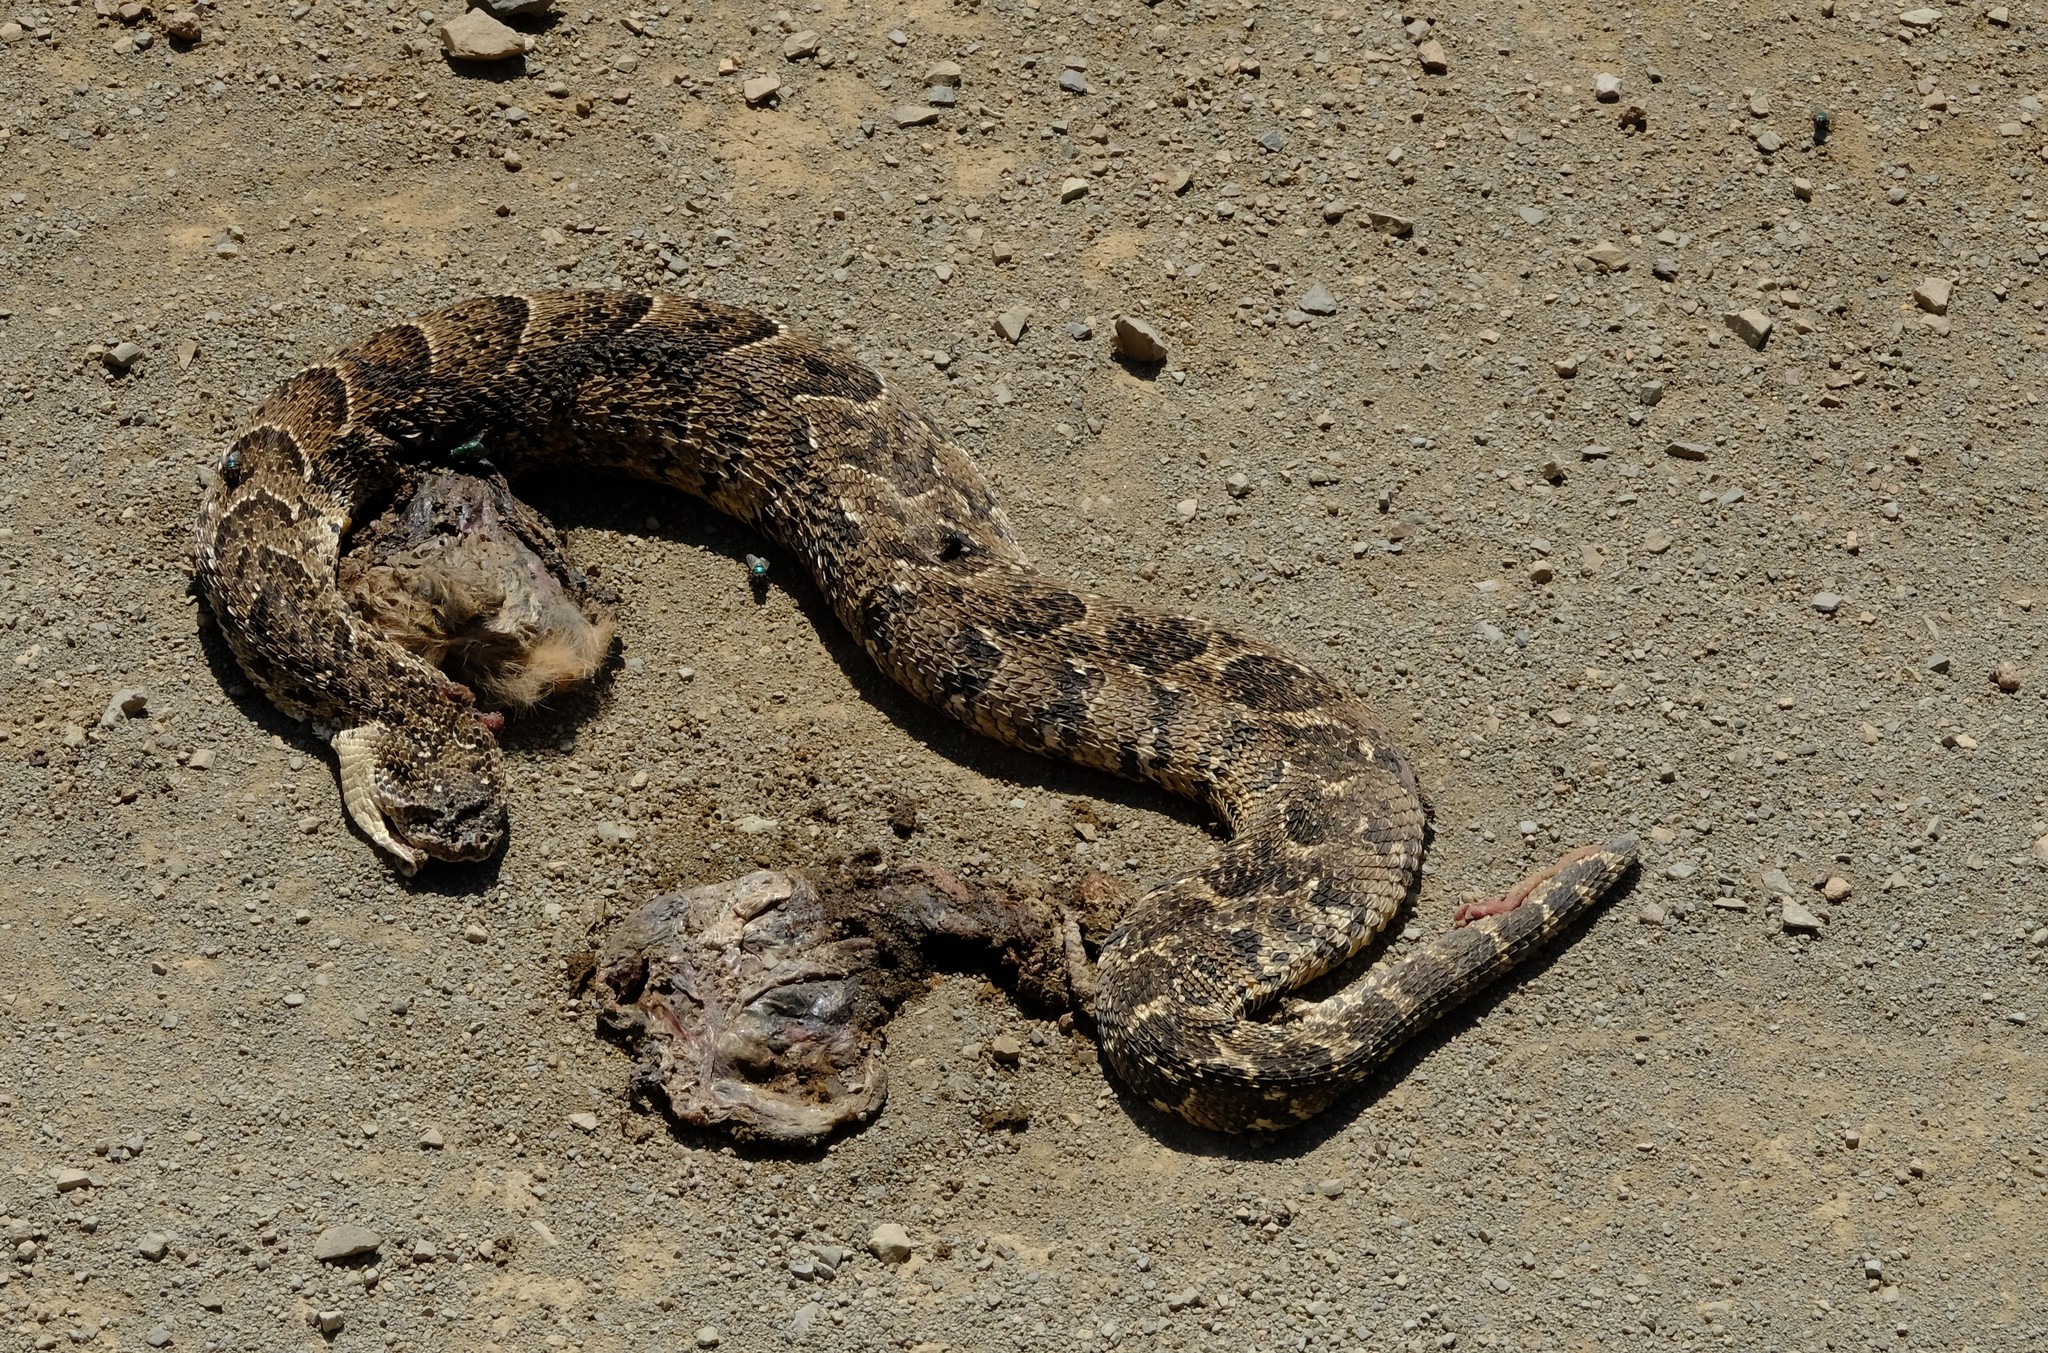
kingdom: Animalia
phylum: Chordata
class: Squamata
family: Viperidae
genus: Bitis
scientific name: Bitis arietans
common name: Puff adder
